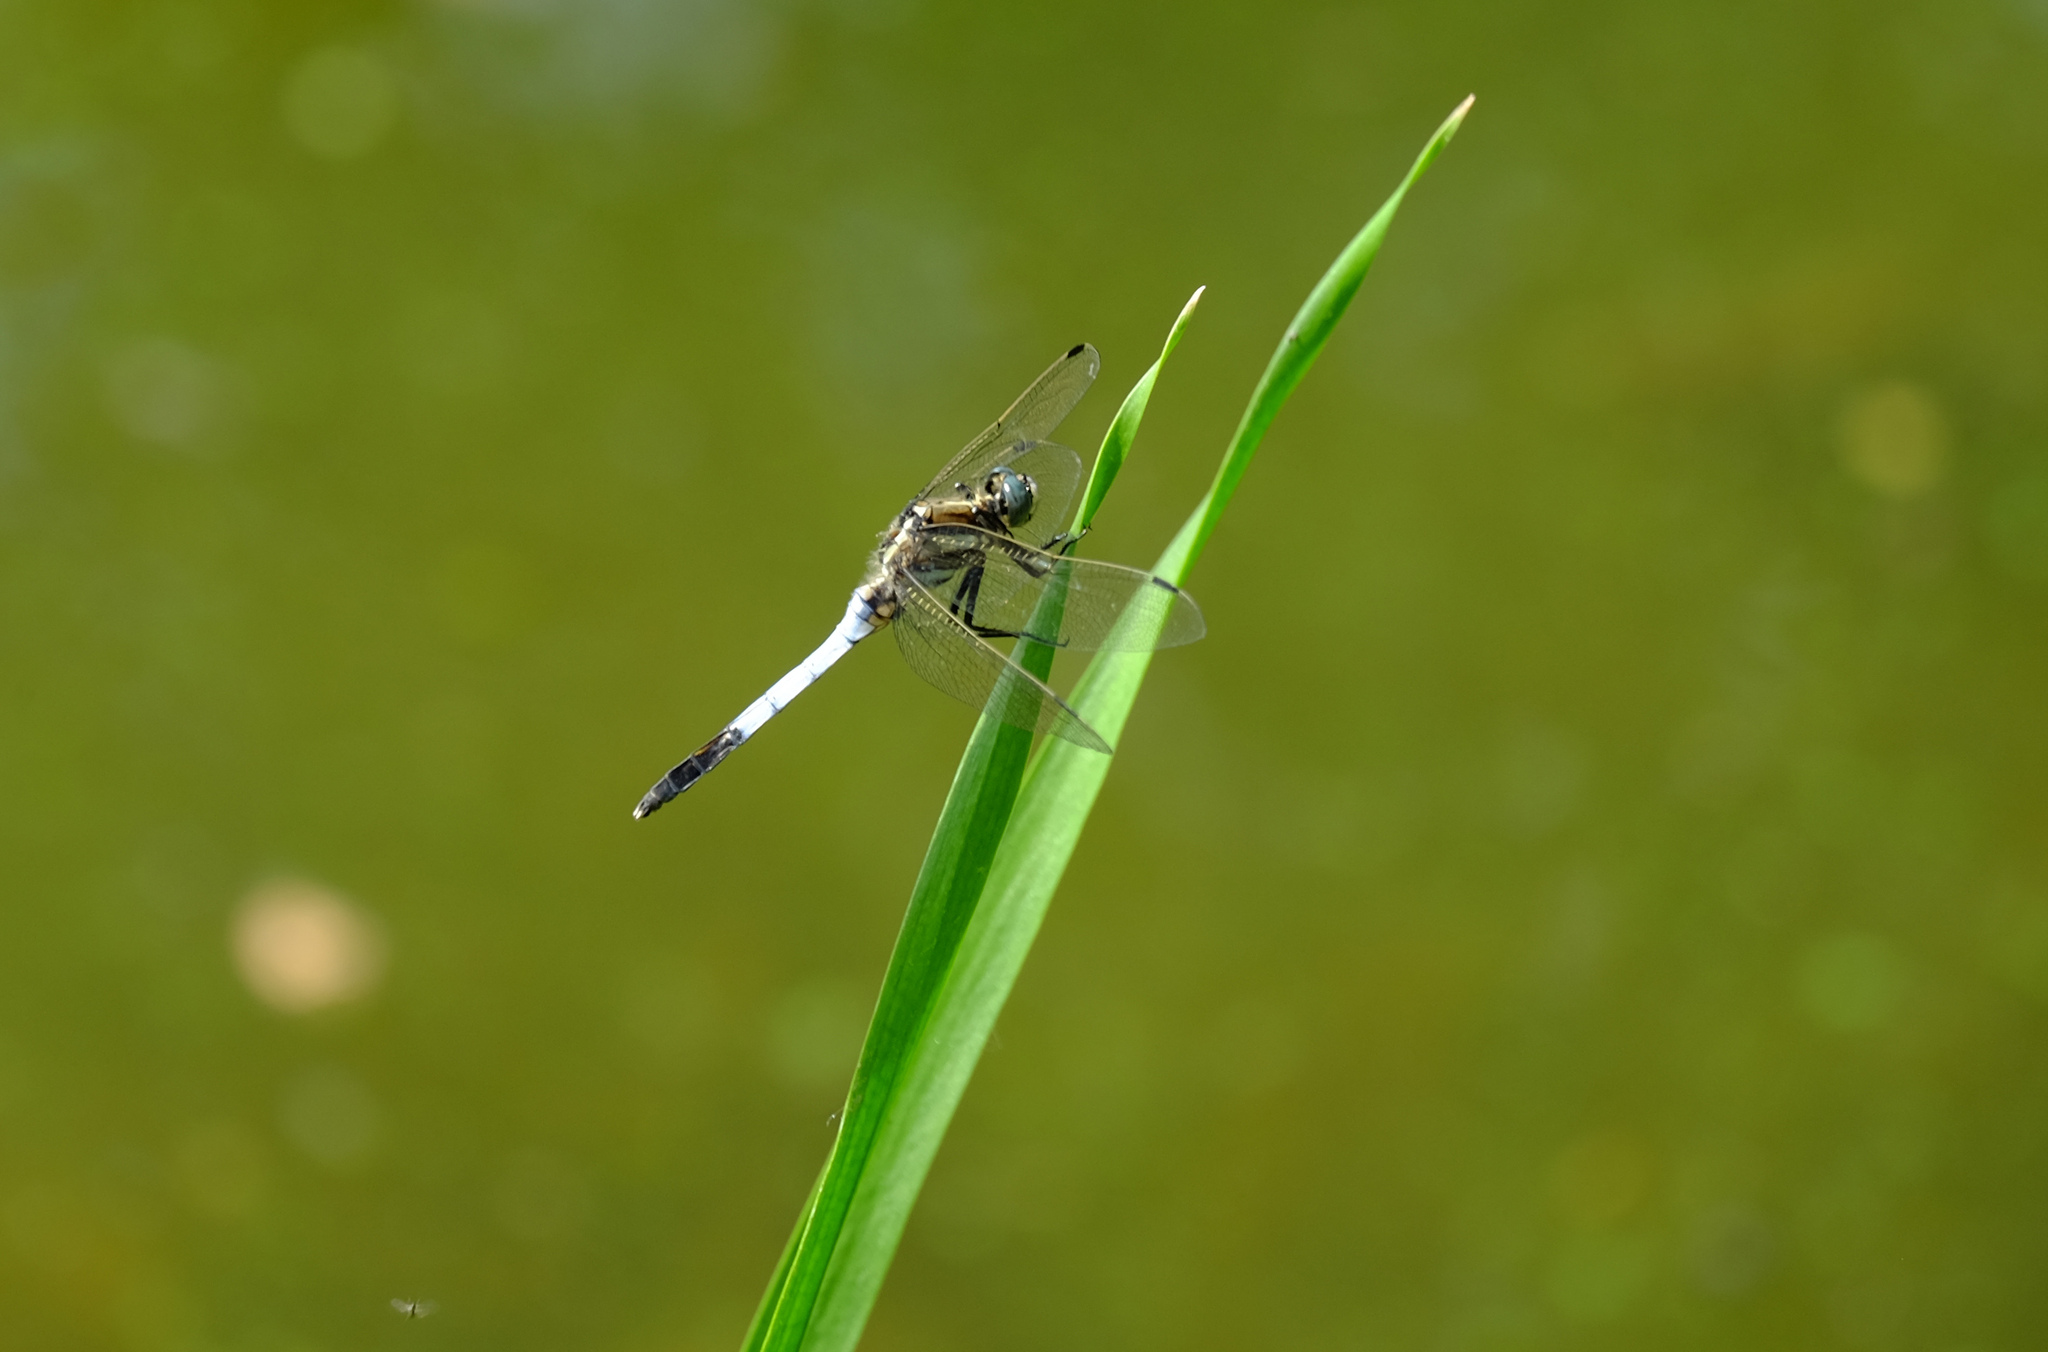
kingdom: Animalia
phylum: Arthropoda
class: Insecta
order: Odonata
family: Libellulidae
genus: Orthetrum
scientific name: Orthetrum albistylum
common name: White-tailed skimmer
